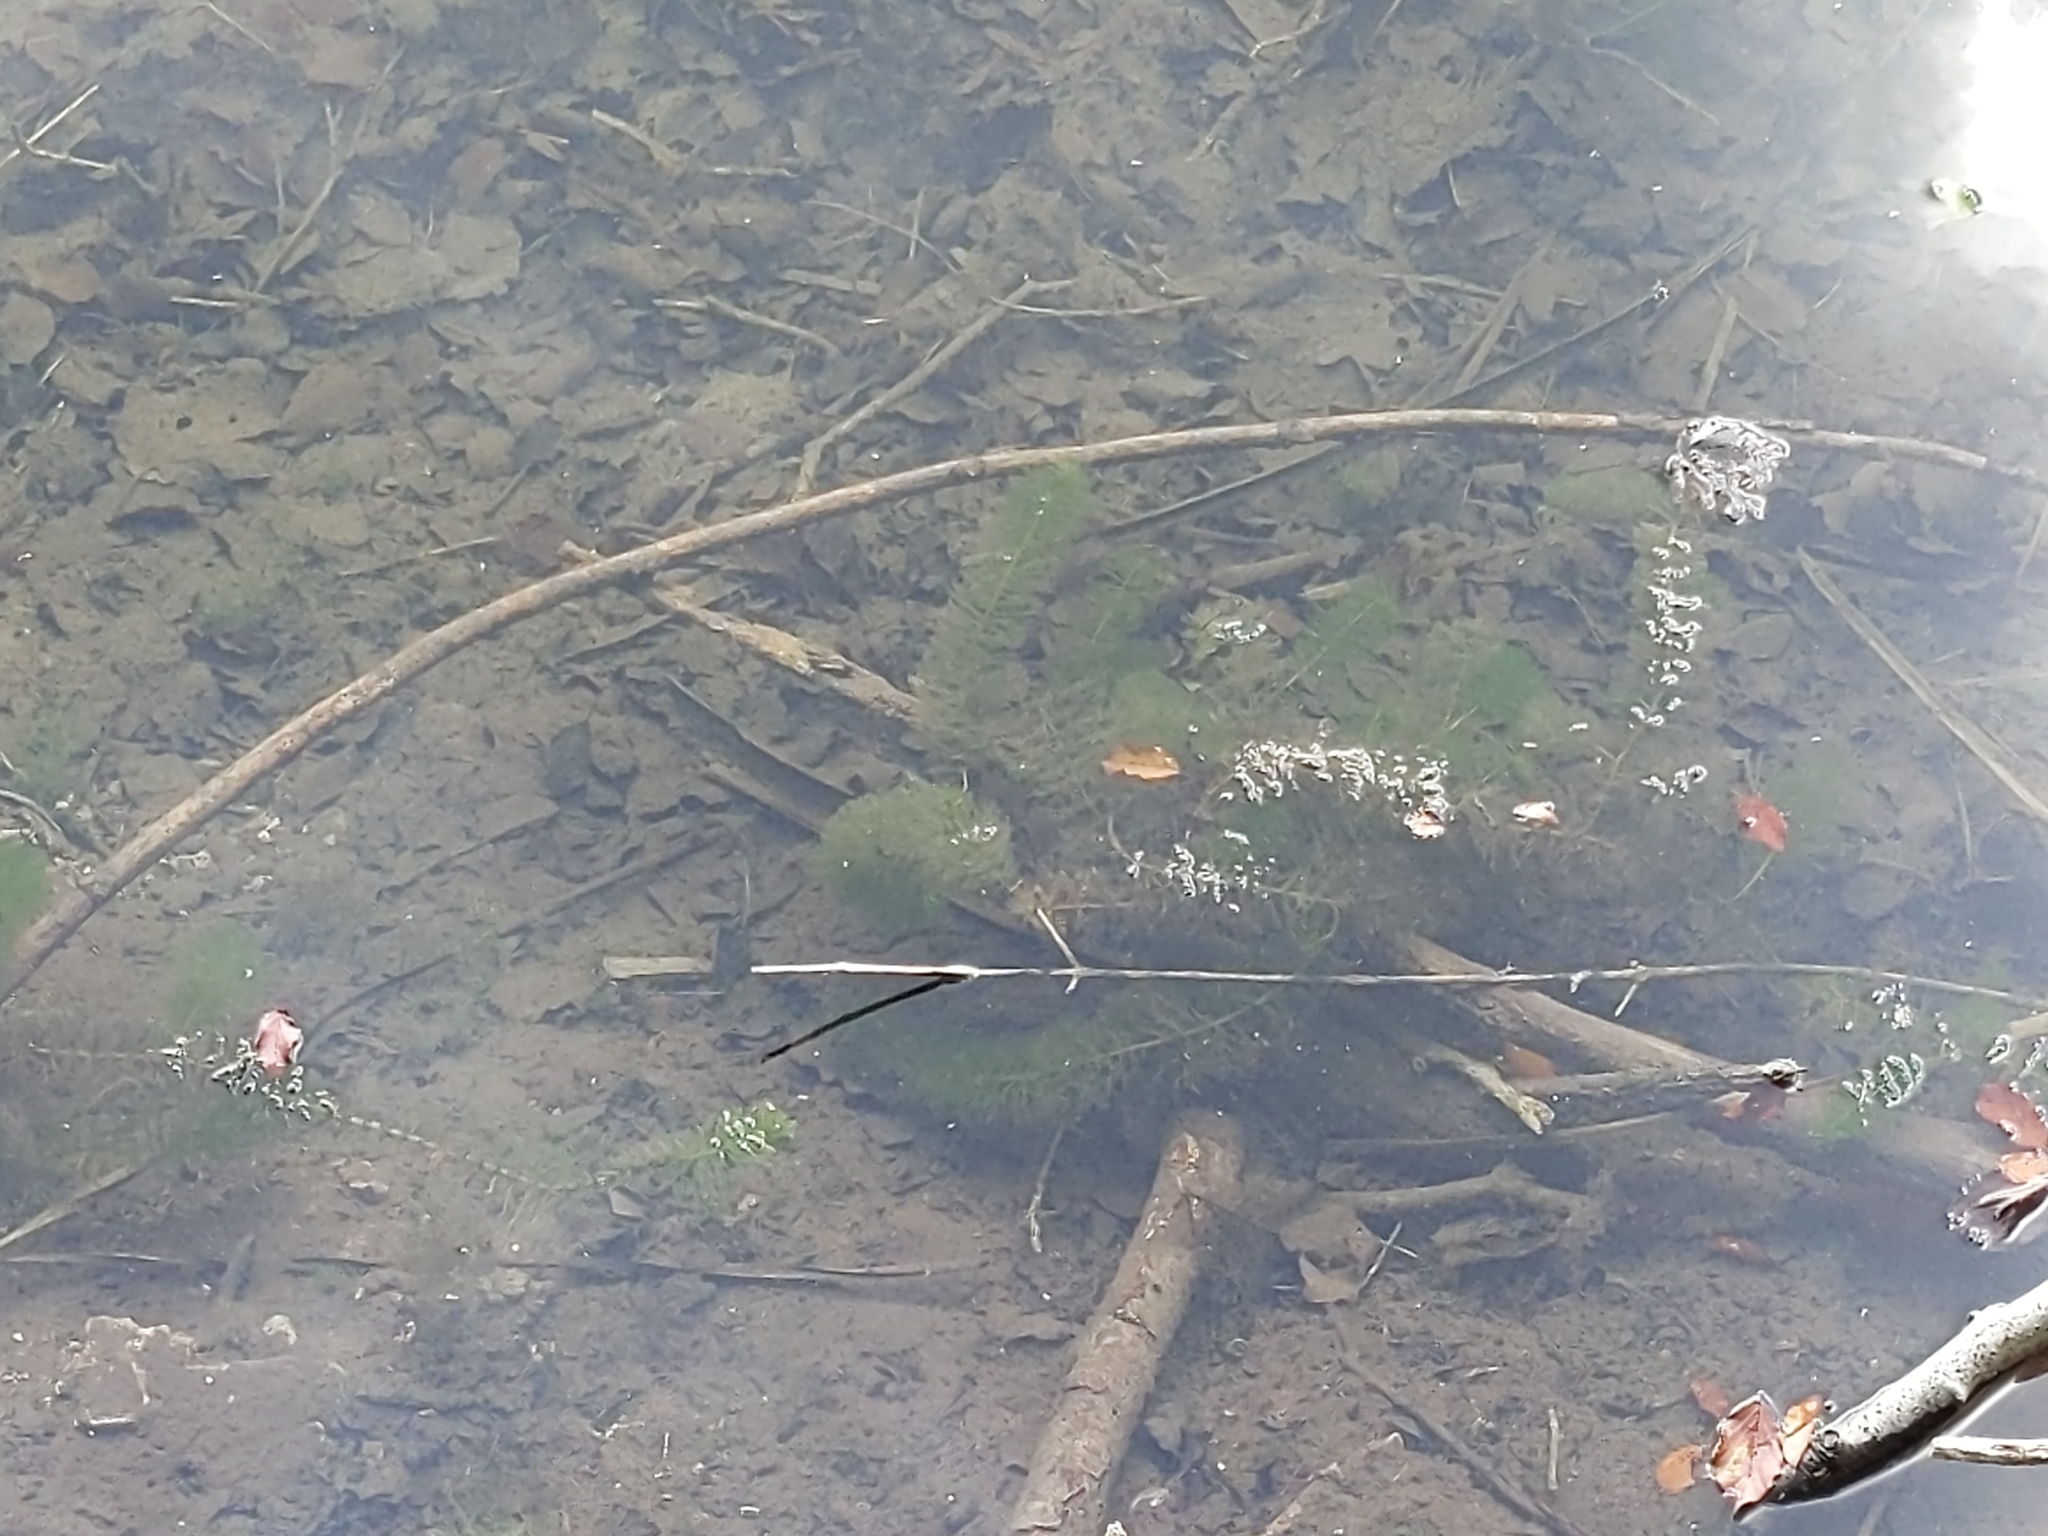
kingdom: Plantae
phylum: Tracheophyta
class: Magnoliopsida
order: Ceratophyllales
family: Ceratophyllaceae
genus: Ceratophyllum
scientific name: Ceratophyllum demersum
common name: Rigid hornwort
